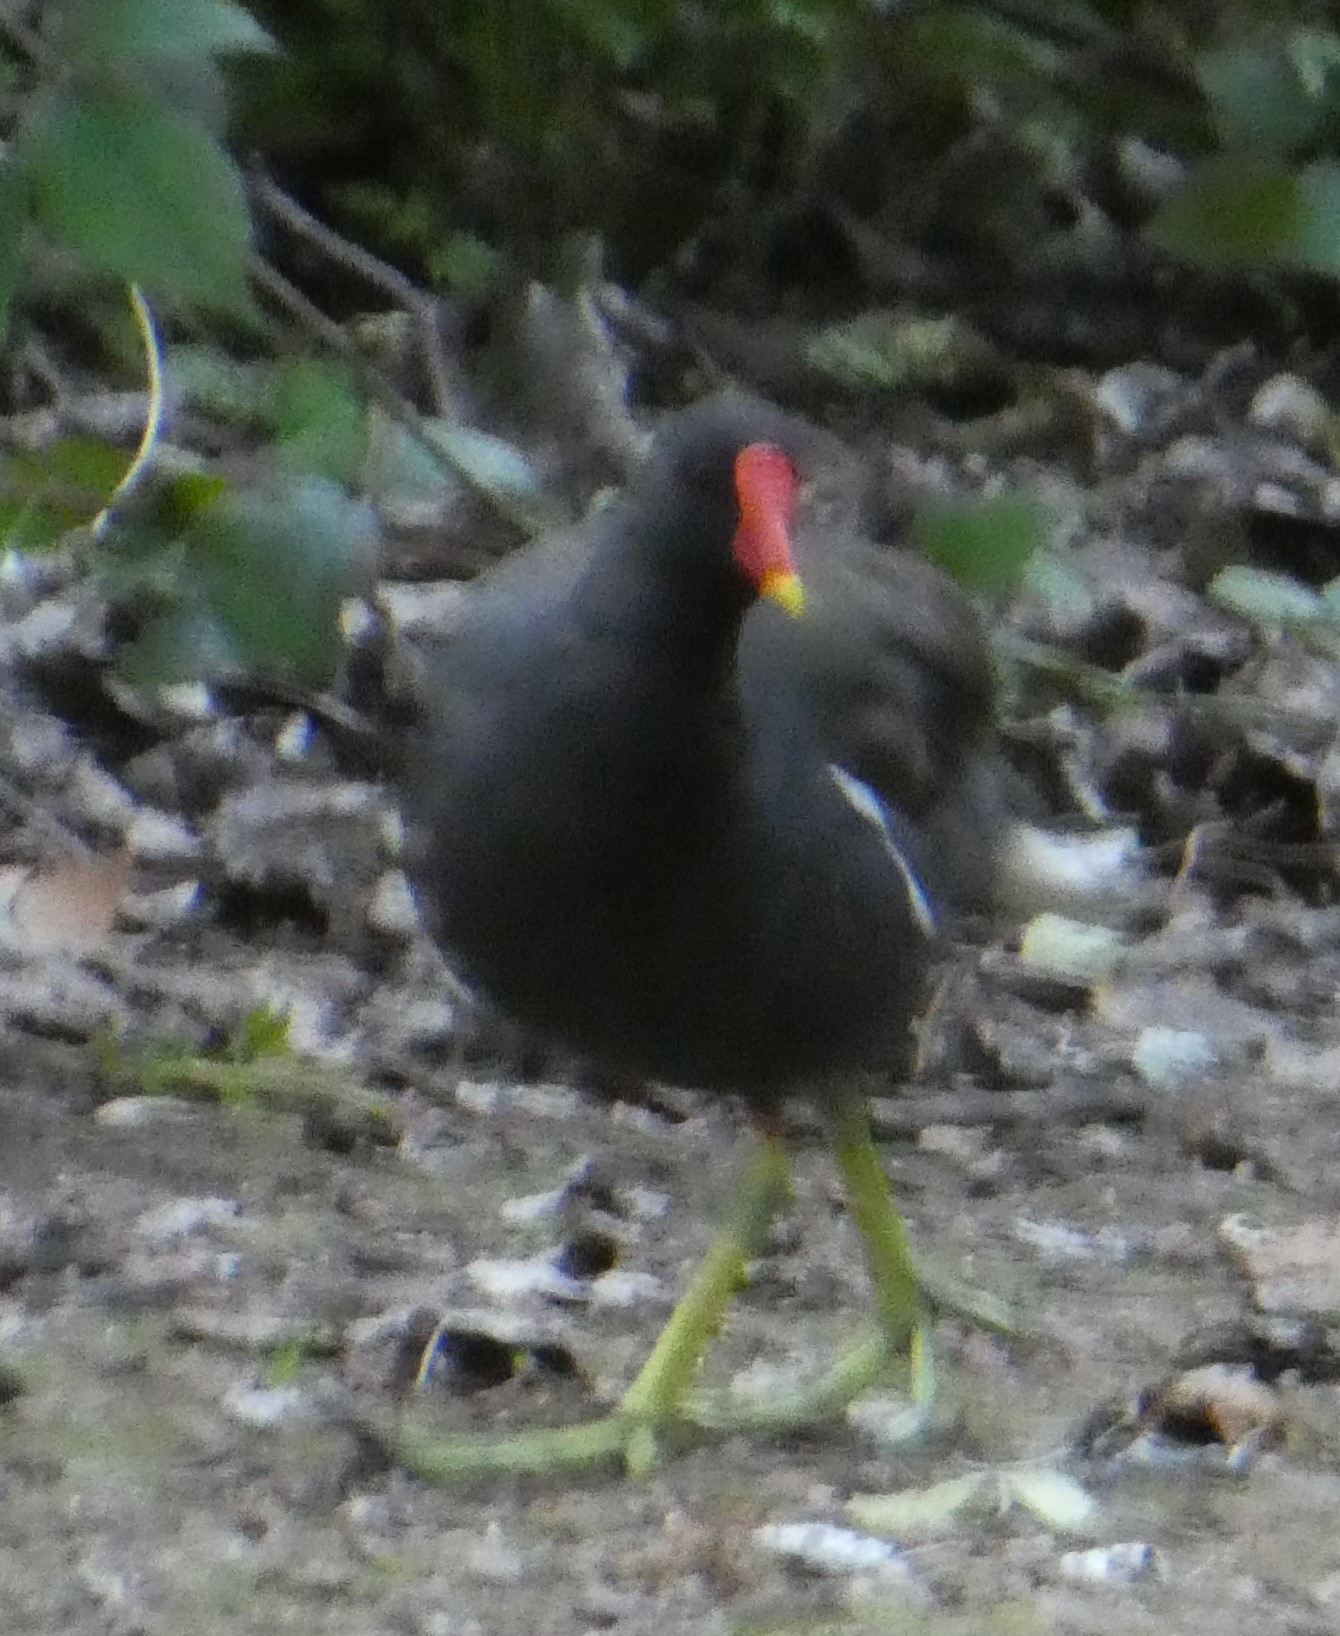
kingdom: Animalia
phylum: Chordata
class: Aves
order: Gruiformes
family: Rallidae
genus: Gallinula
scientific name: Gallinula chloropus
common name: Common moorhen
